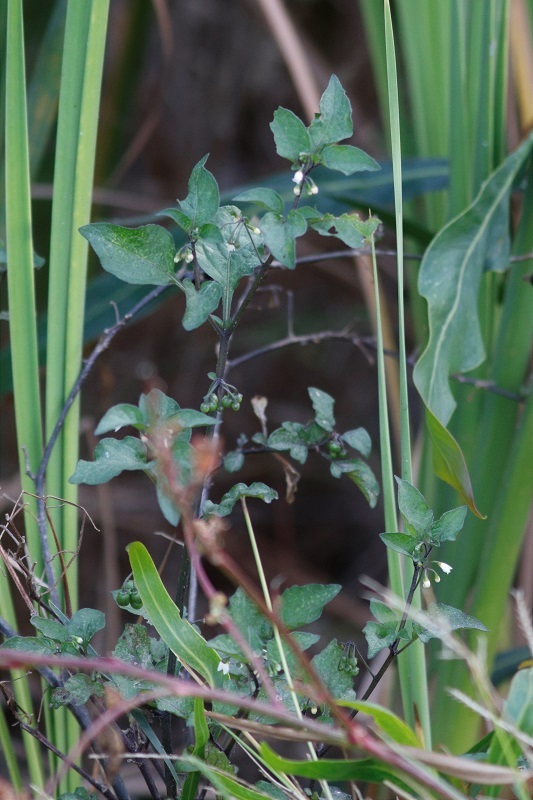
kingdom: Plantae
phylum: Tracheophyta
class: Magnoliopsida
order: Solanales
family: Solanaceae
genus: Solanum
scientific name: Solanum nigrum
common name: Black nightshade
